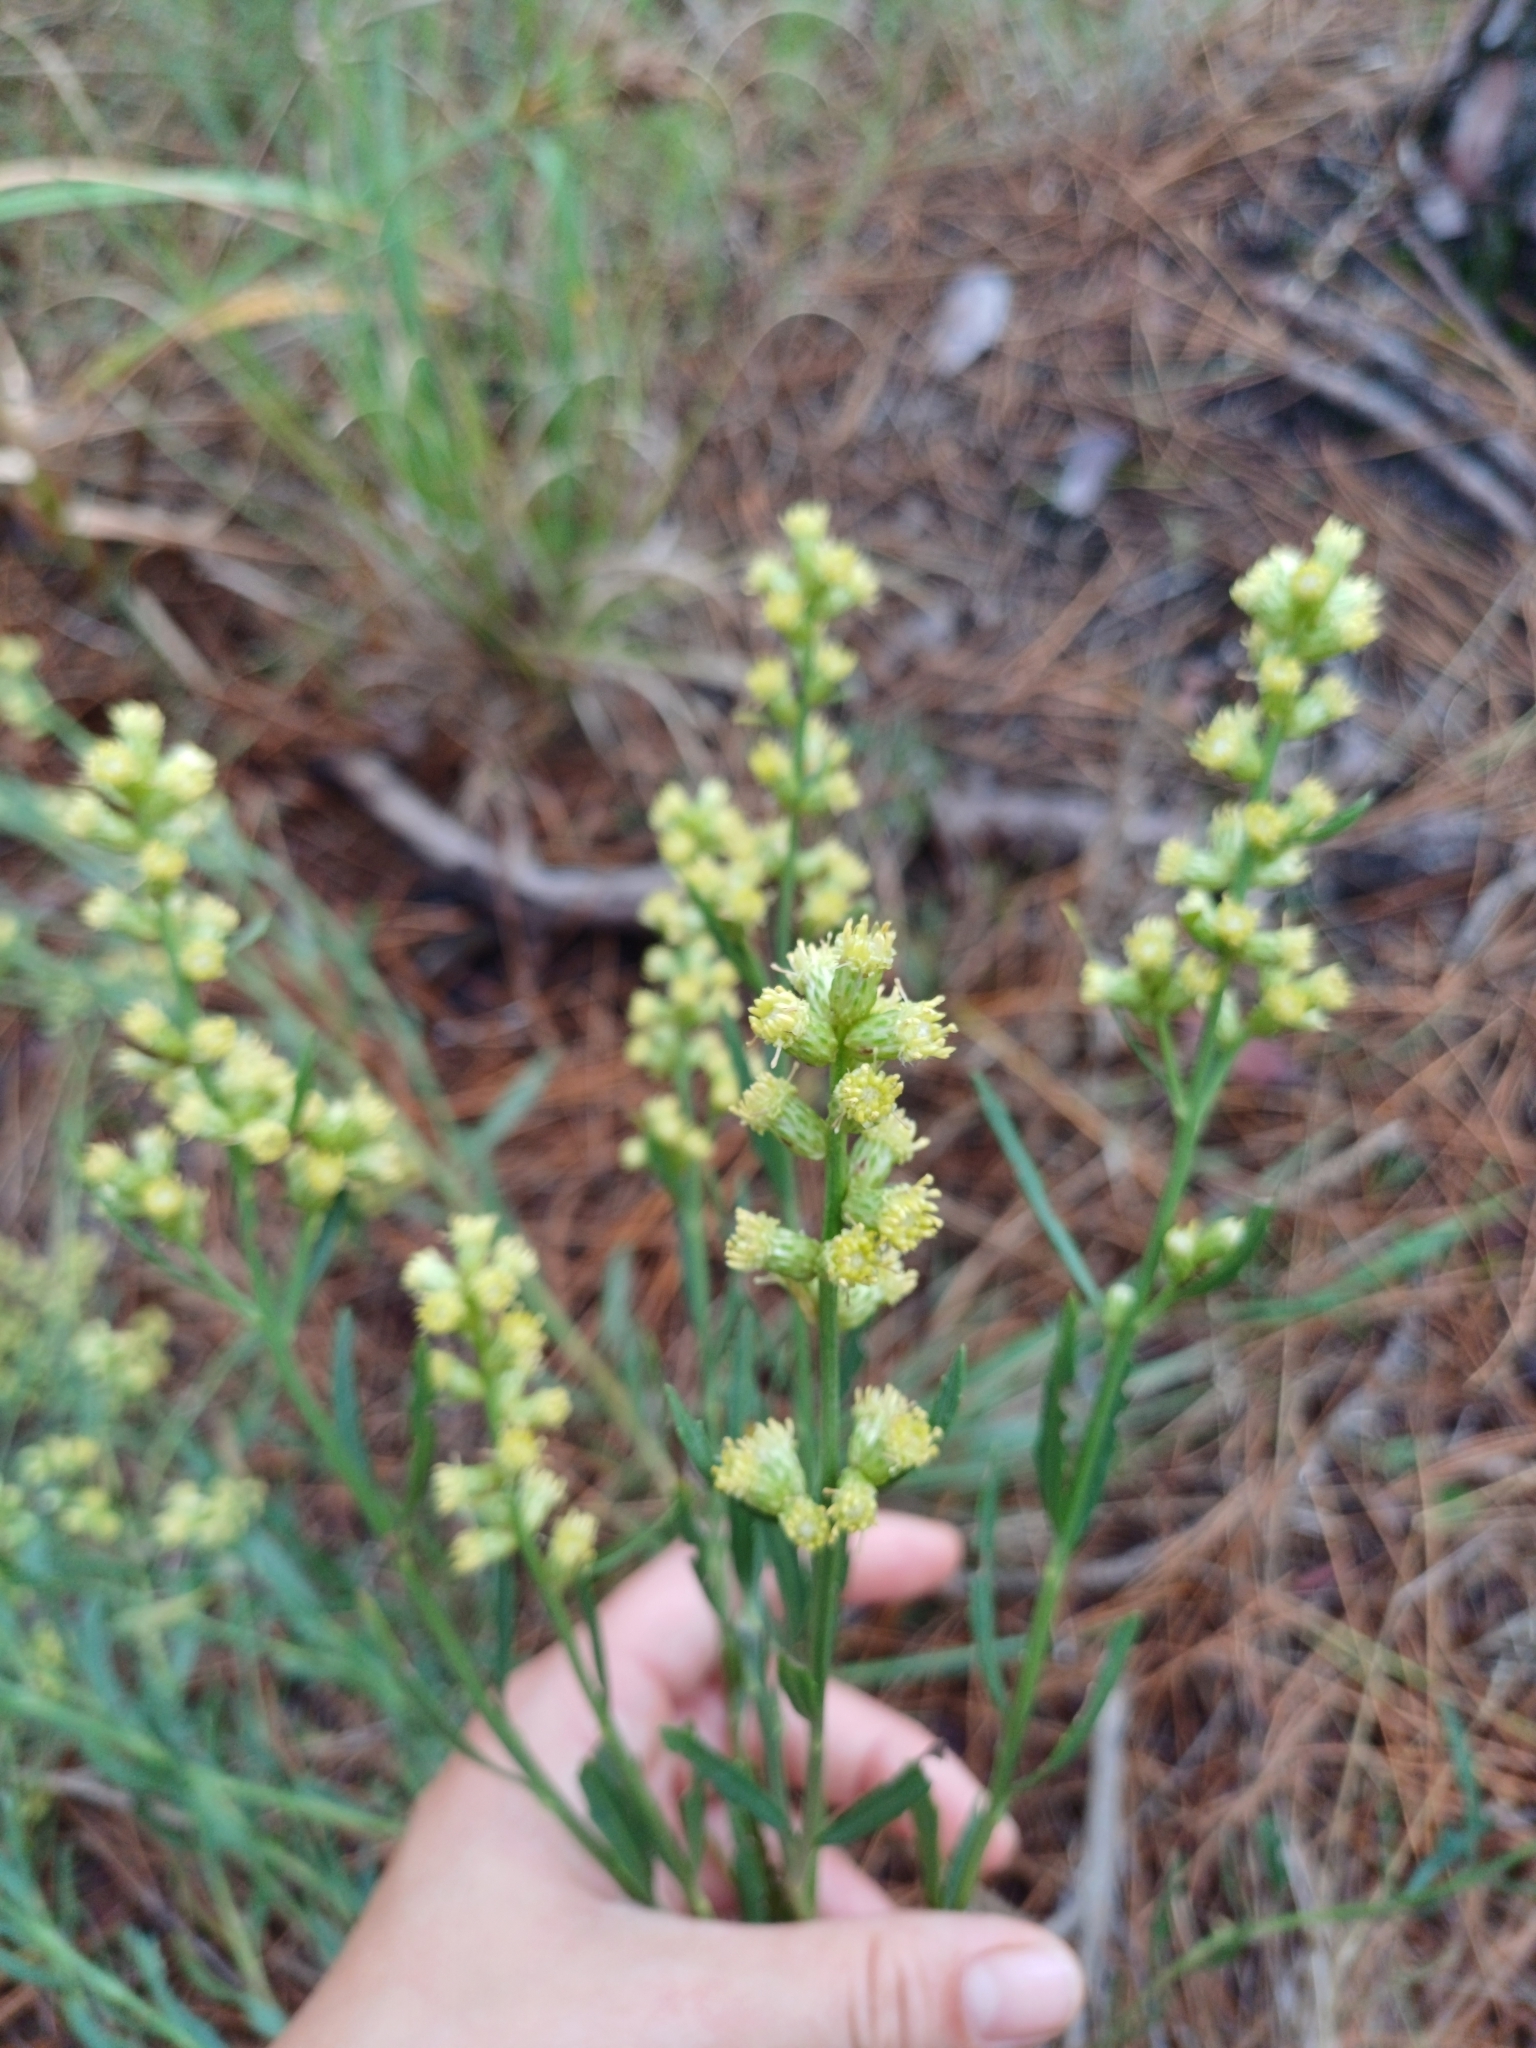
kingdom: Plantae
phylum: Tracheophyta
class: Magnoliopsida
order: Asterales
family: Asteraceae
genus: Baccharis
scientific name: Baccharis spicata
